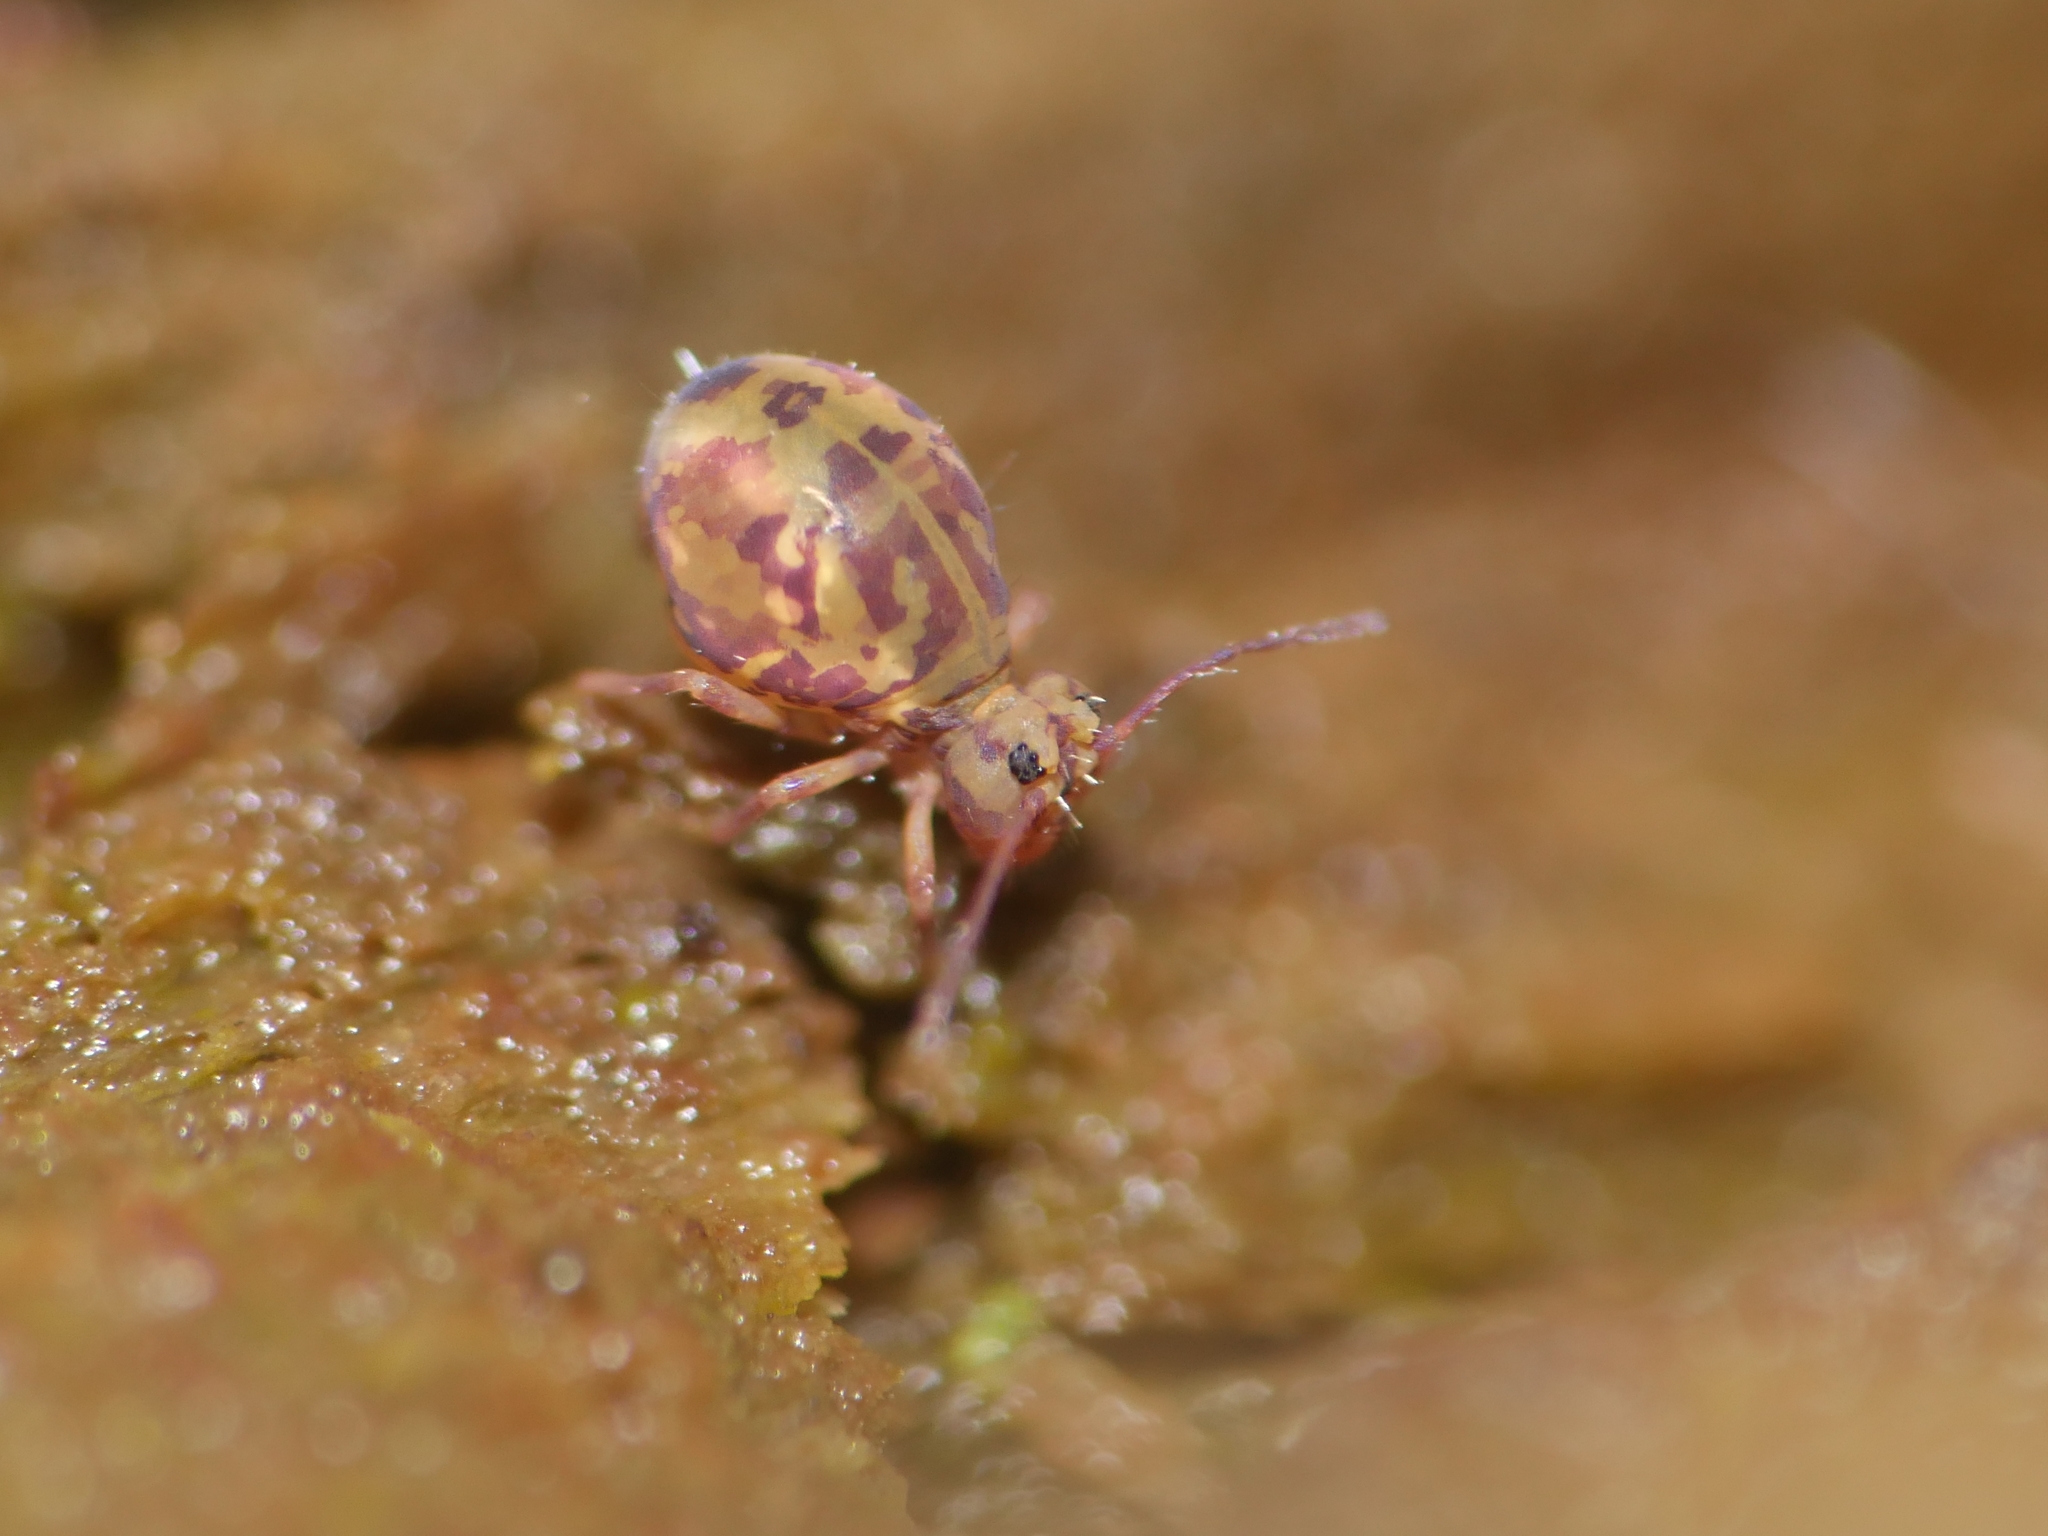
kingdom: Animalia
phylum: Arthropoda
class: Collembola
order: Symphypleona
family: Dicyrtomidae
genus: Dicyrtomina
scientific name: Dicyrtomina ornata
